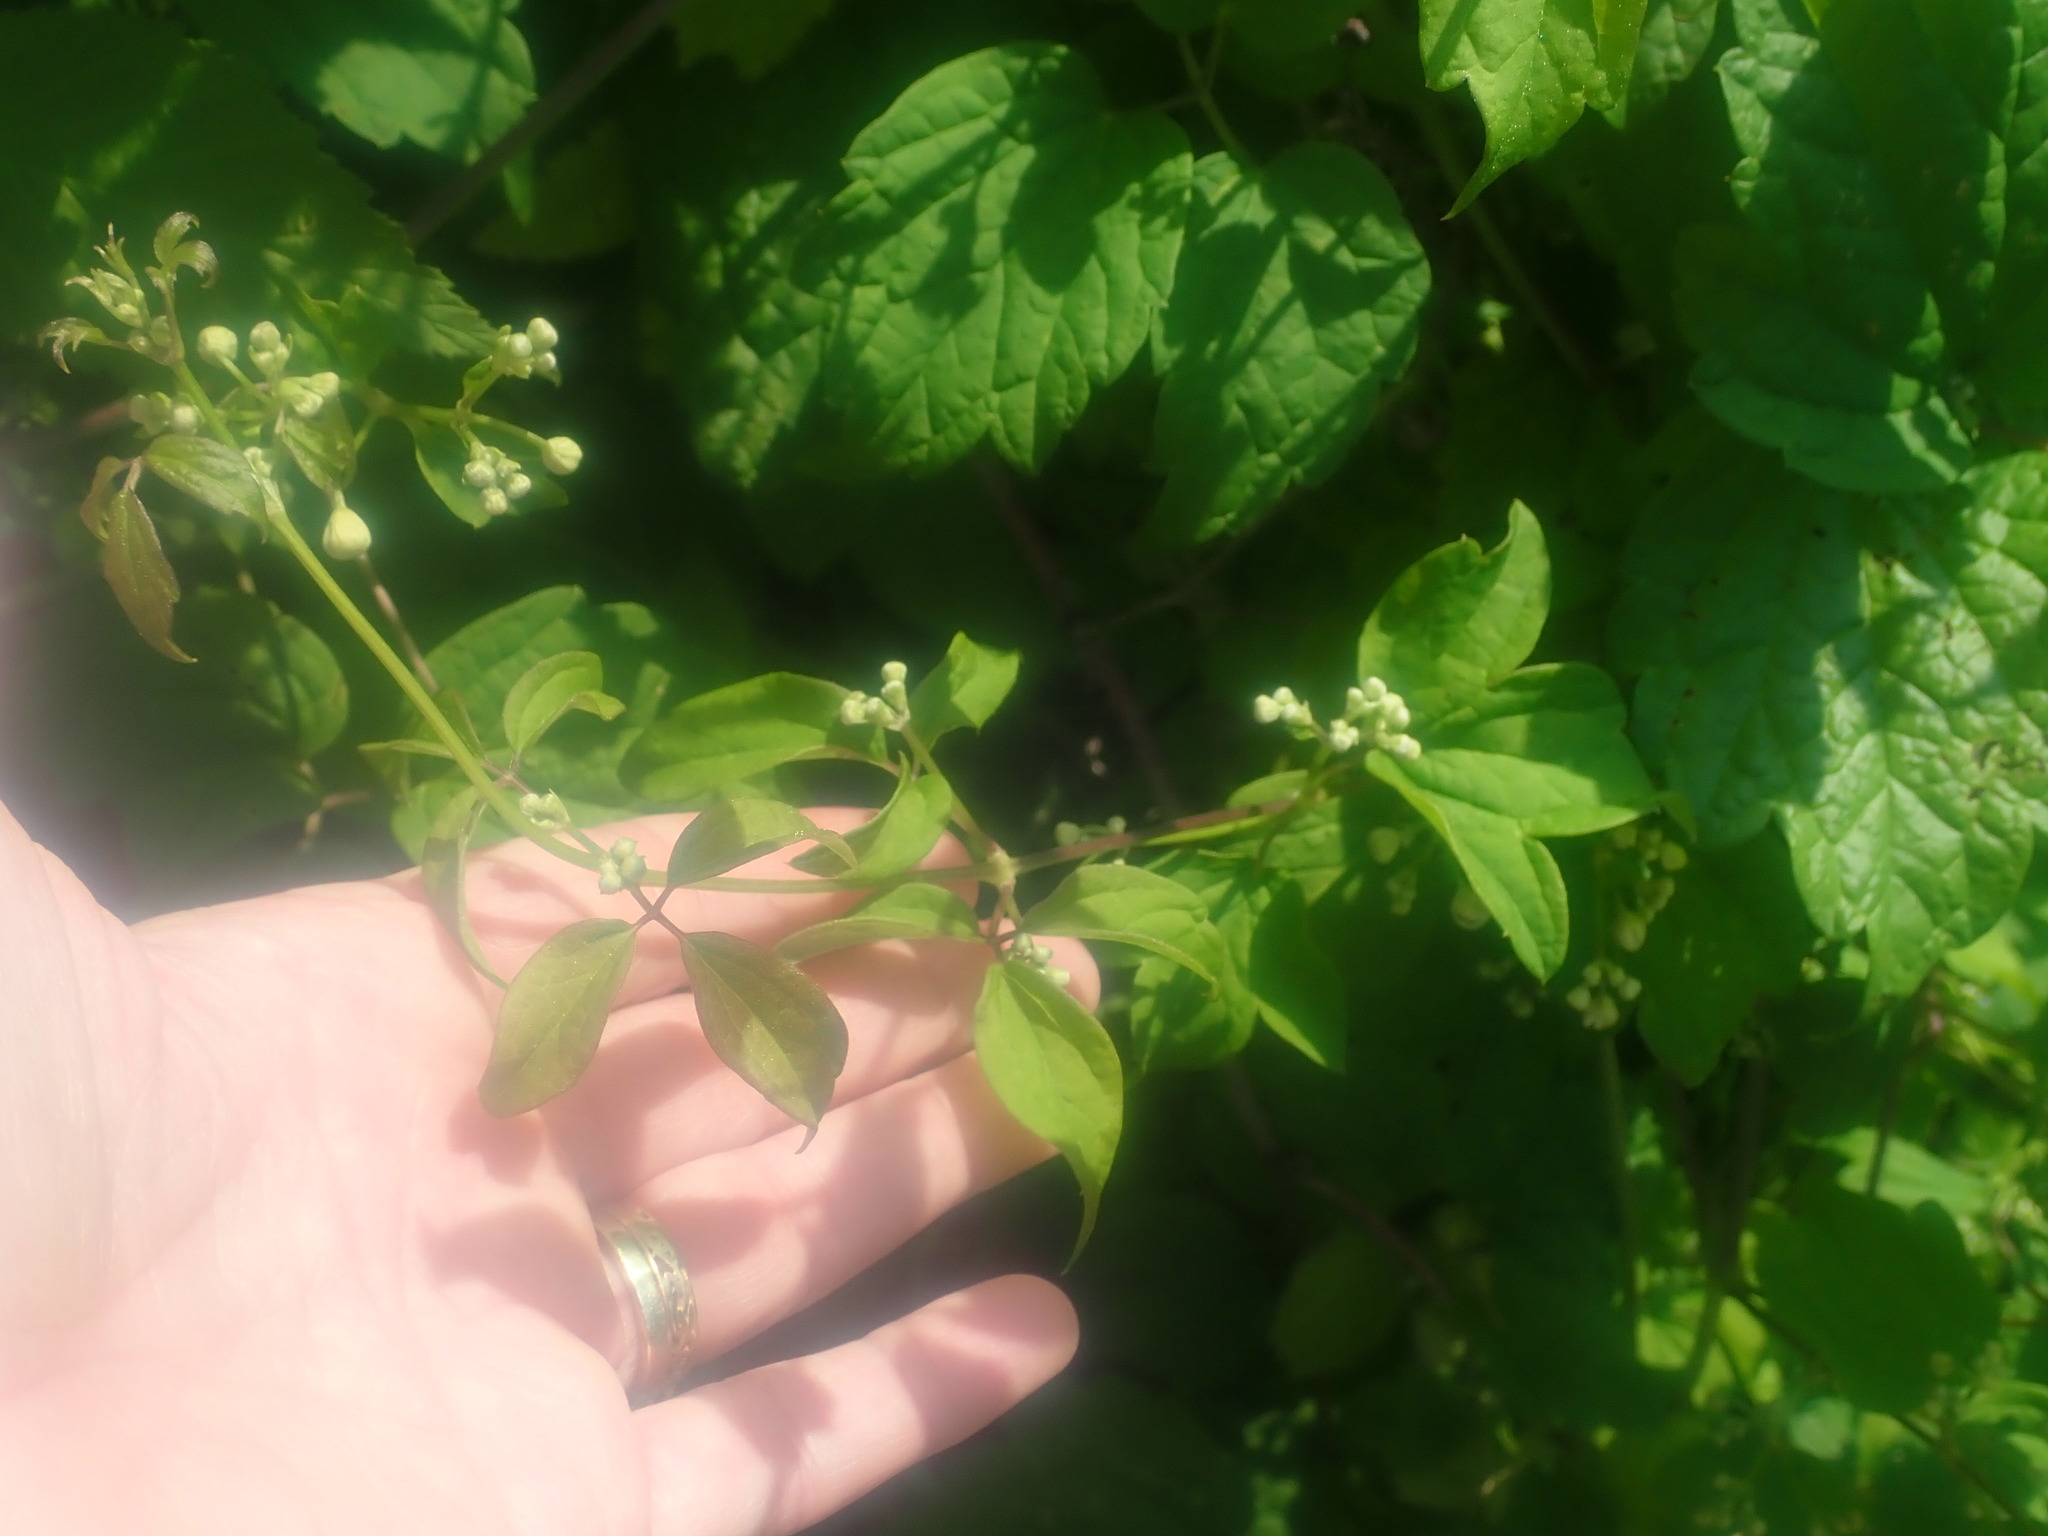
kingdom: Plantae
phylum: Tracheophyta
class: Magnoliopsida
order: Ranunculales
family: Ranunculaceae
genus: Clematis
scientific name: Clematis virginiana
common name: Virgin's-bower
